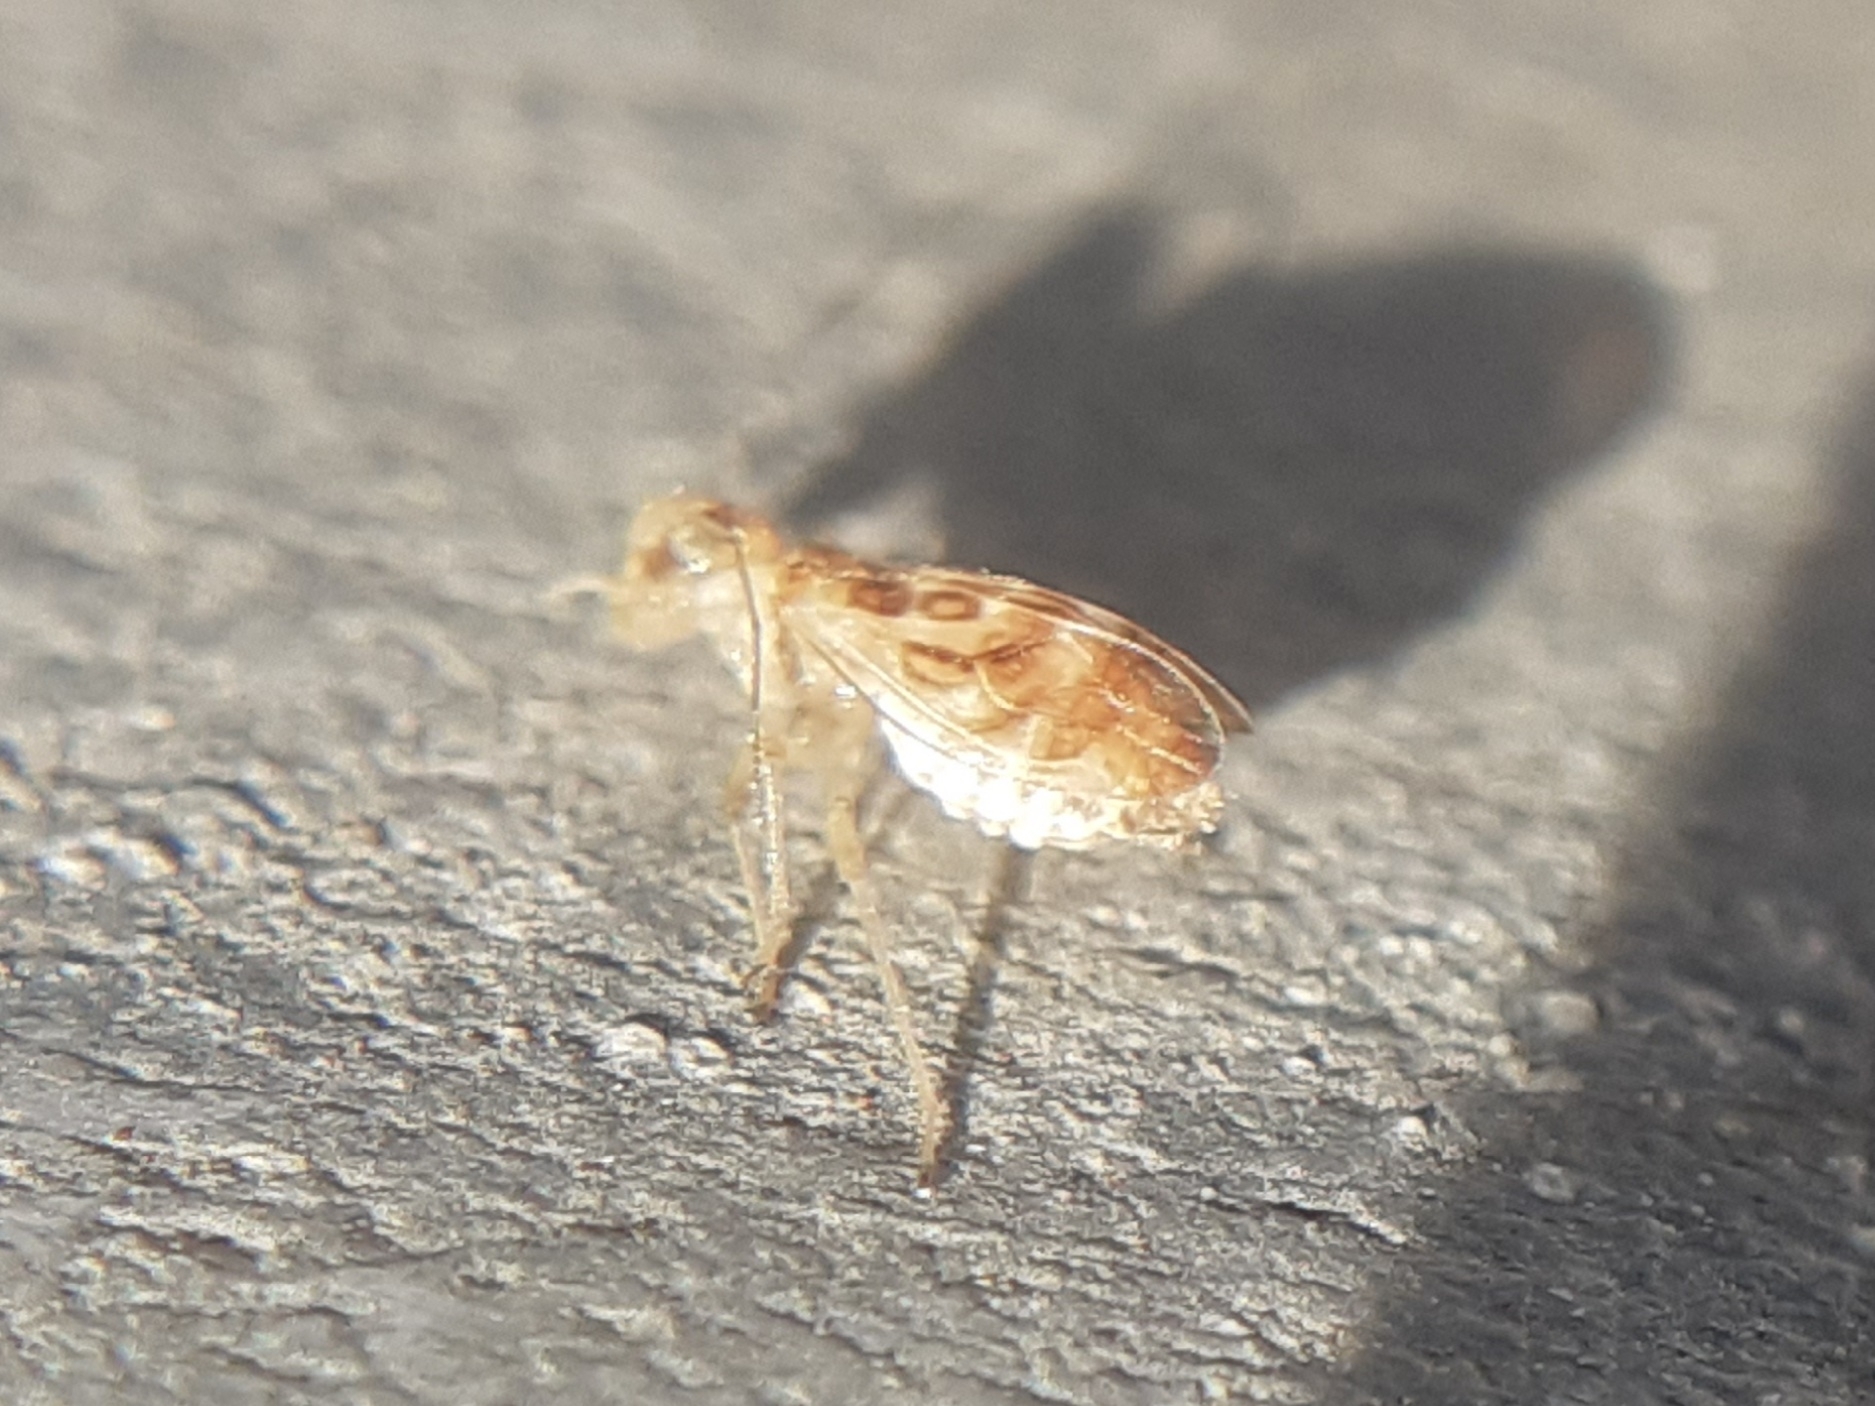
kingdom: Animalia
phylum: Arthropoda
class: Insecta
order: Psocodea
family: Stenopsocidae
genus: Graphopsocus
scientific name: Graphopsocus cruciatus
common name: Lizard bark louse
